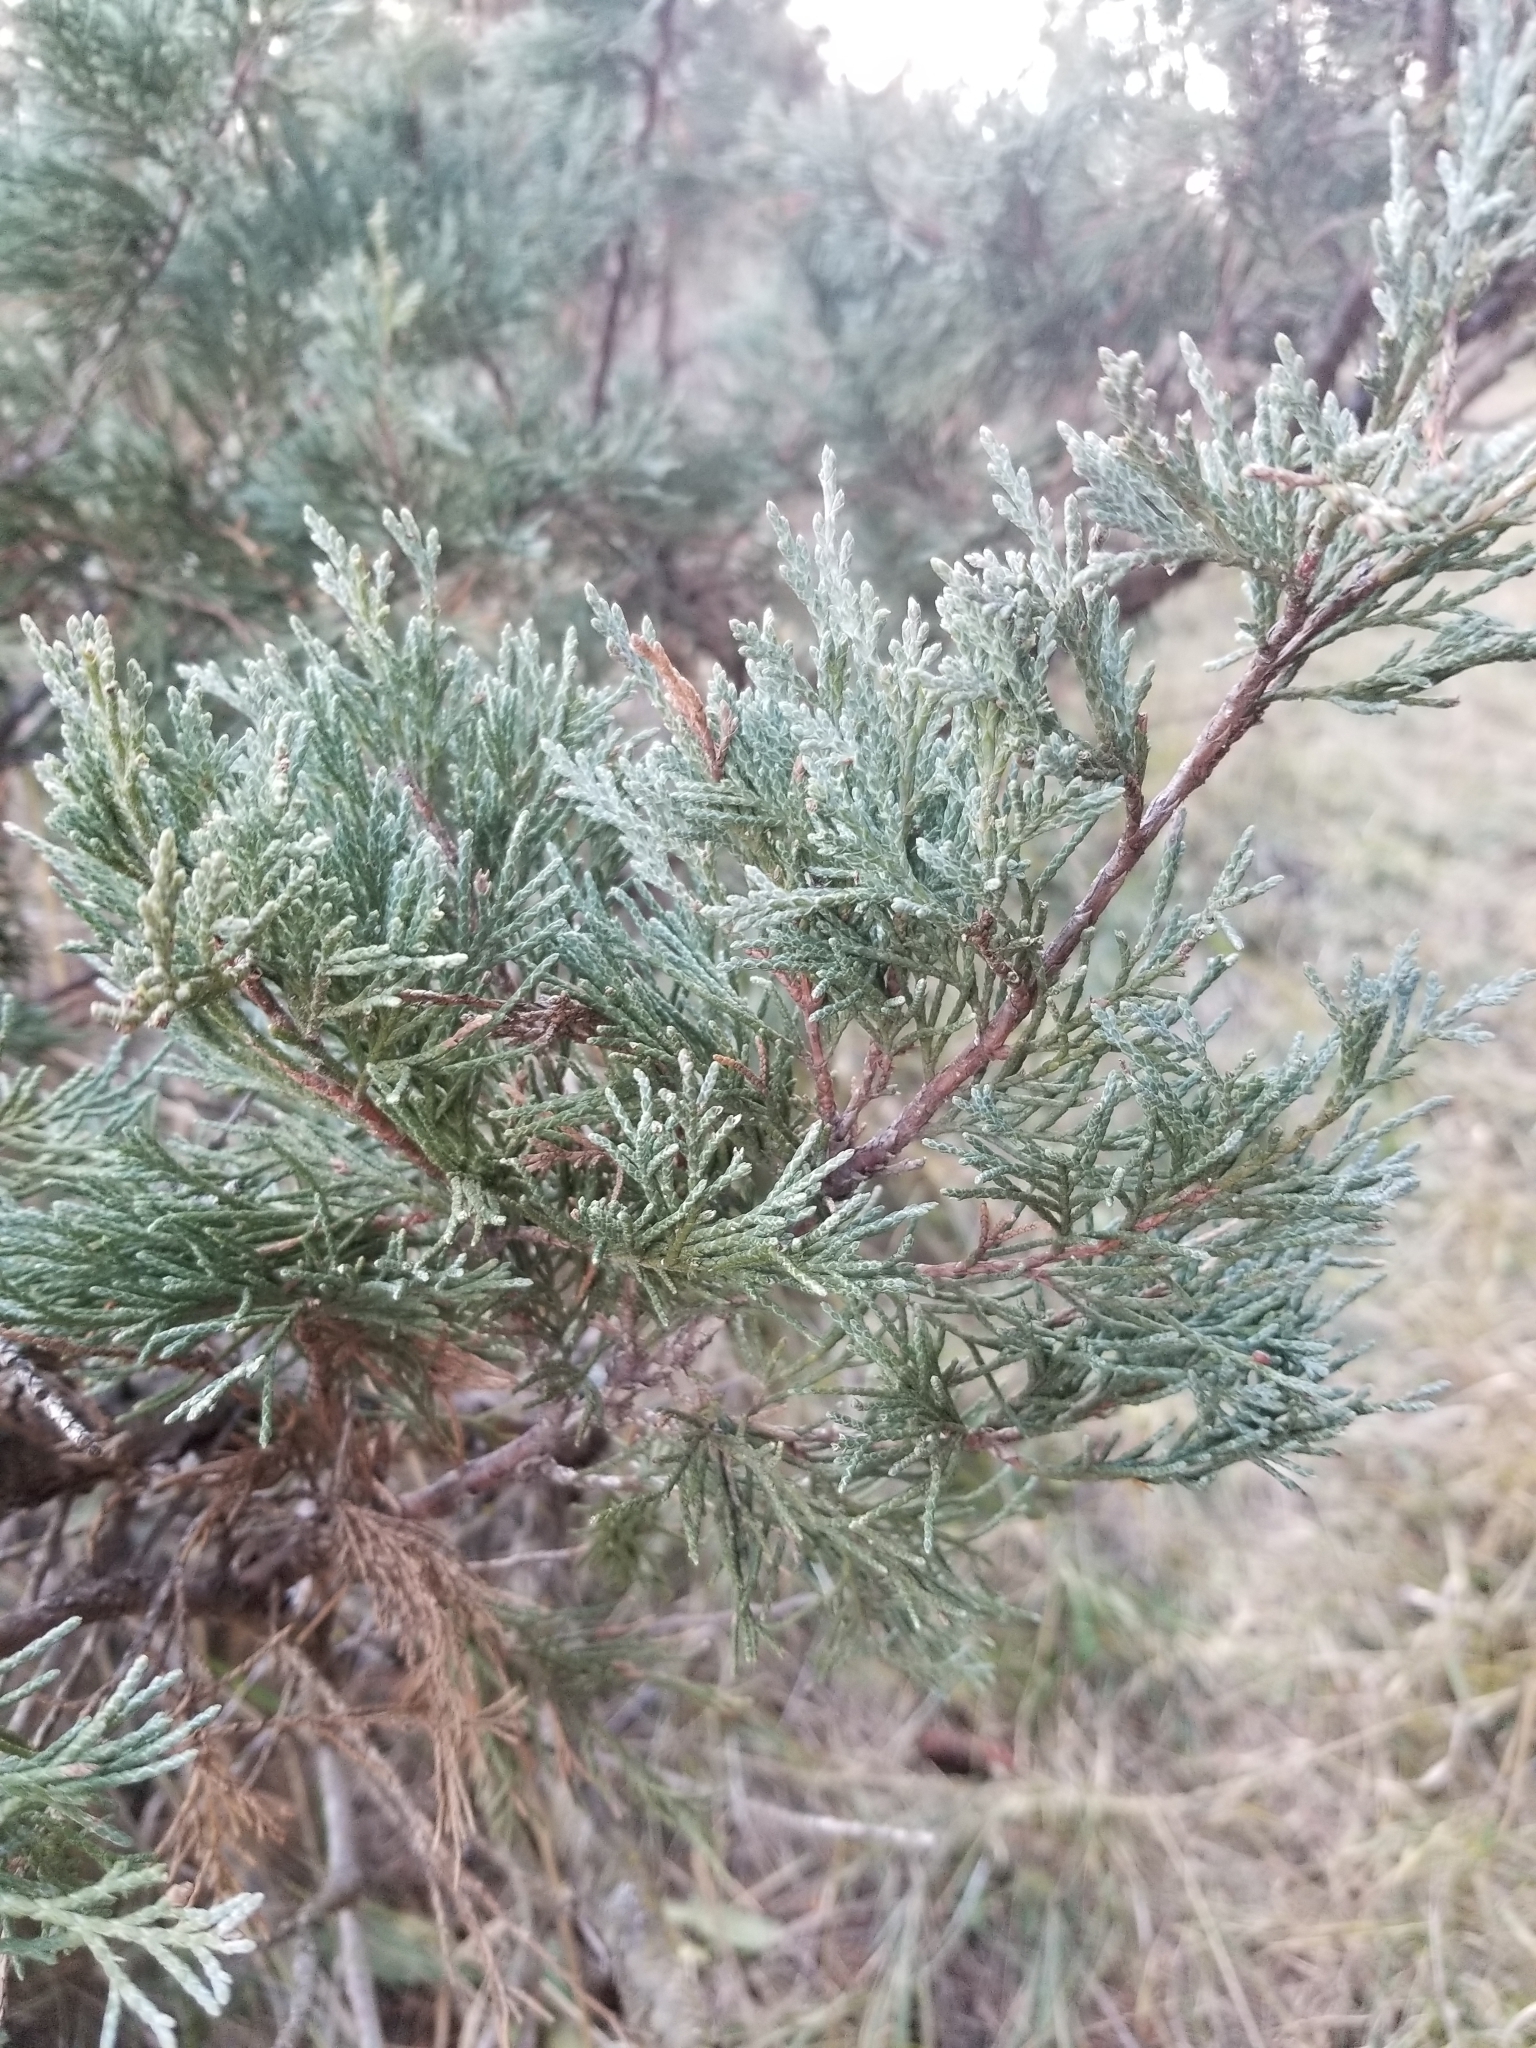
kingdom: Plantae
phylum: Tracheophyta
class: Pinopsida
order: Pinales
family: Cupressaceae
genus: Juniperus
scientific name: Juniperus scopulorum
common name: Rocky mountain juniper
